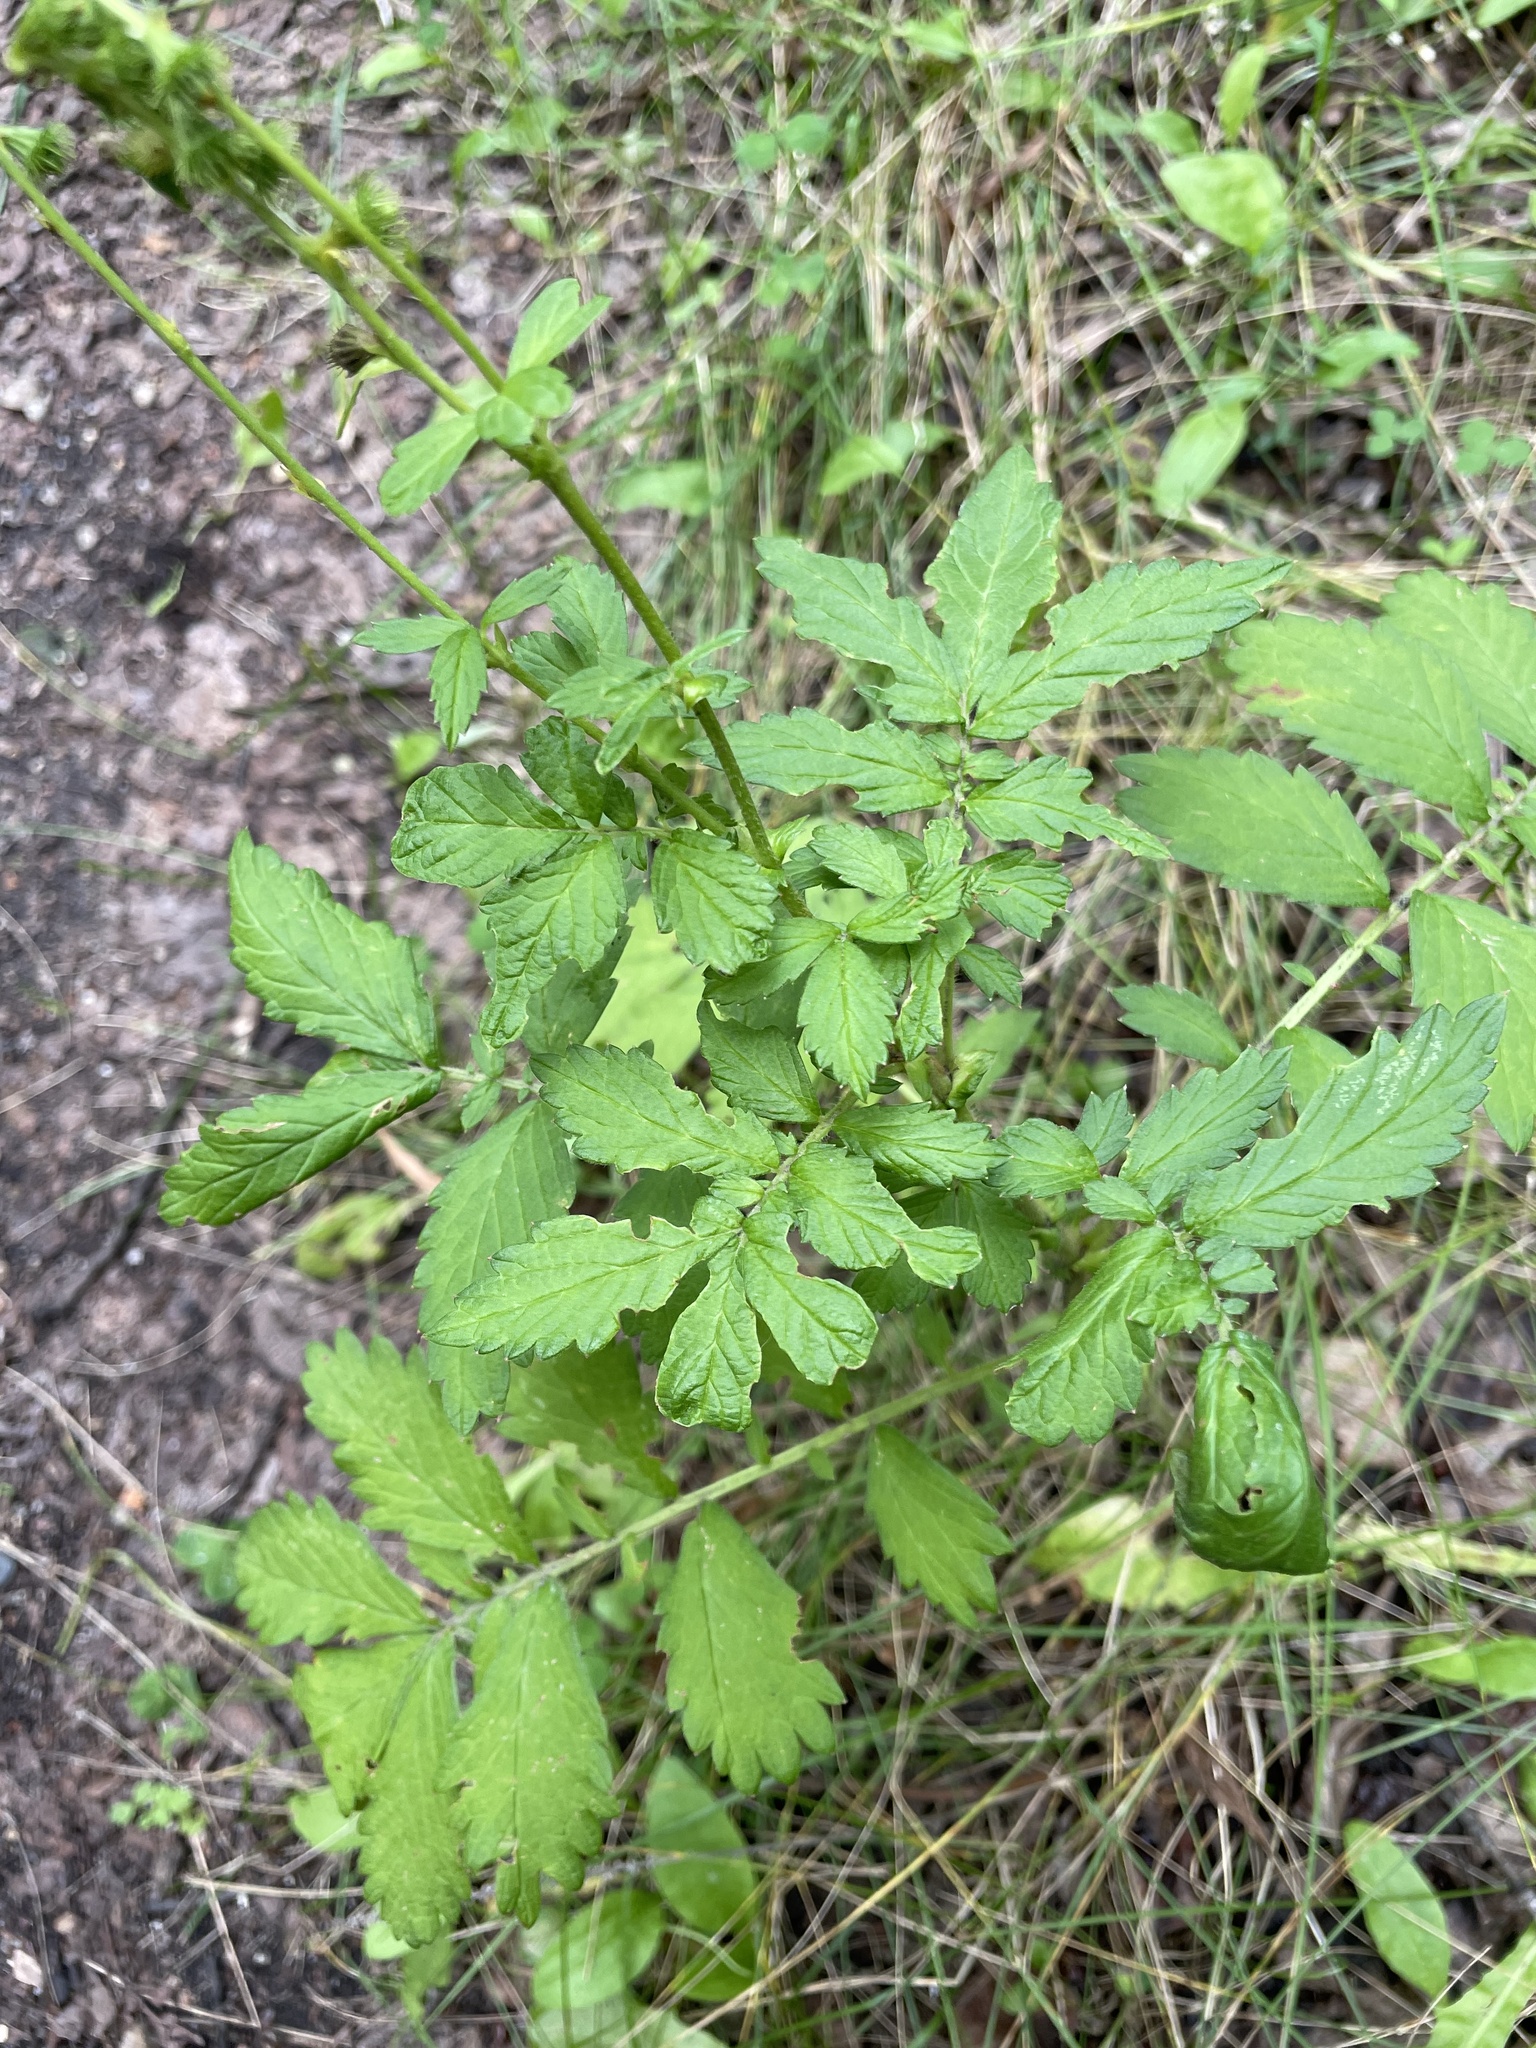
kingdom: Plantae
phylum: Tracheophyta
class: Magnoliopsida
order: Rosales
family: Rosaceae
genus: Agrimonia
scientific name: Agrimonia striata
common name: Britton's agrimony
